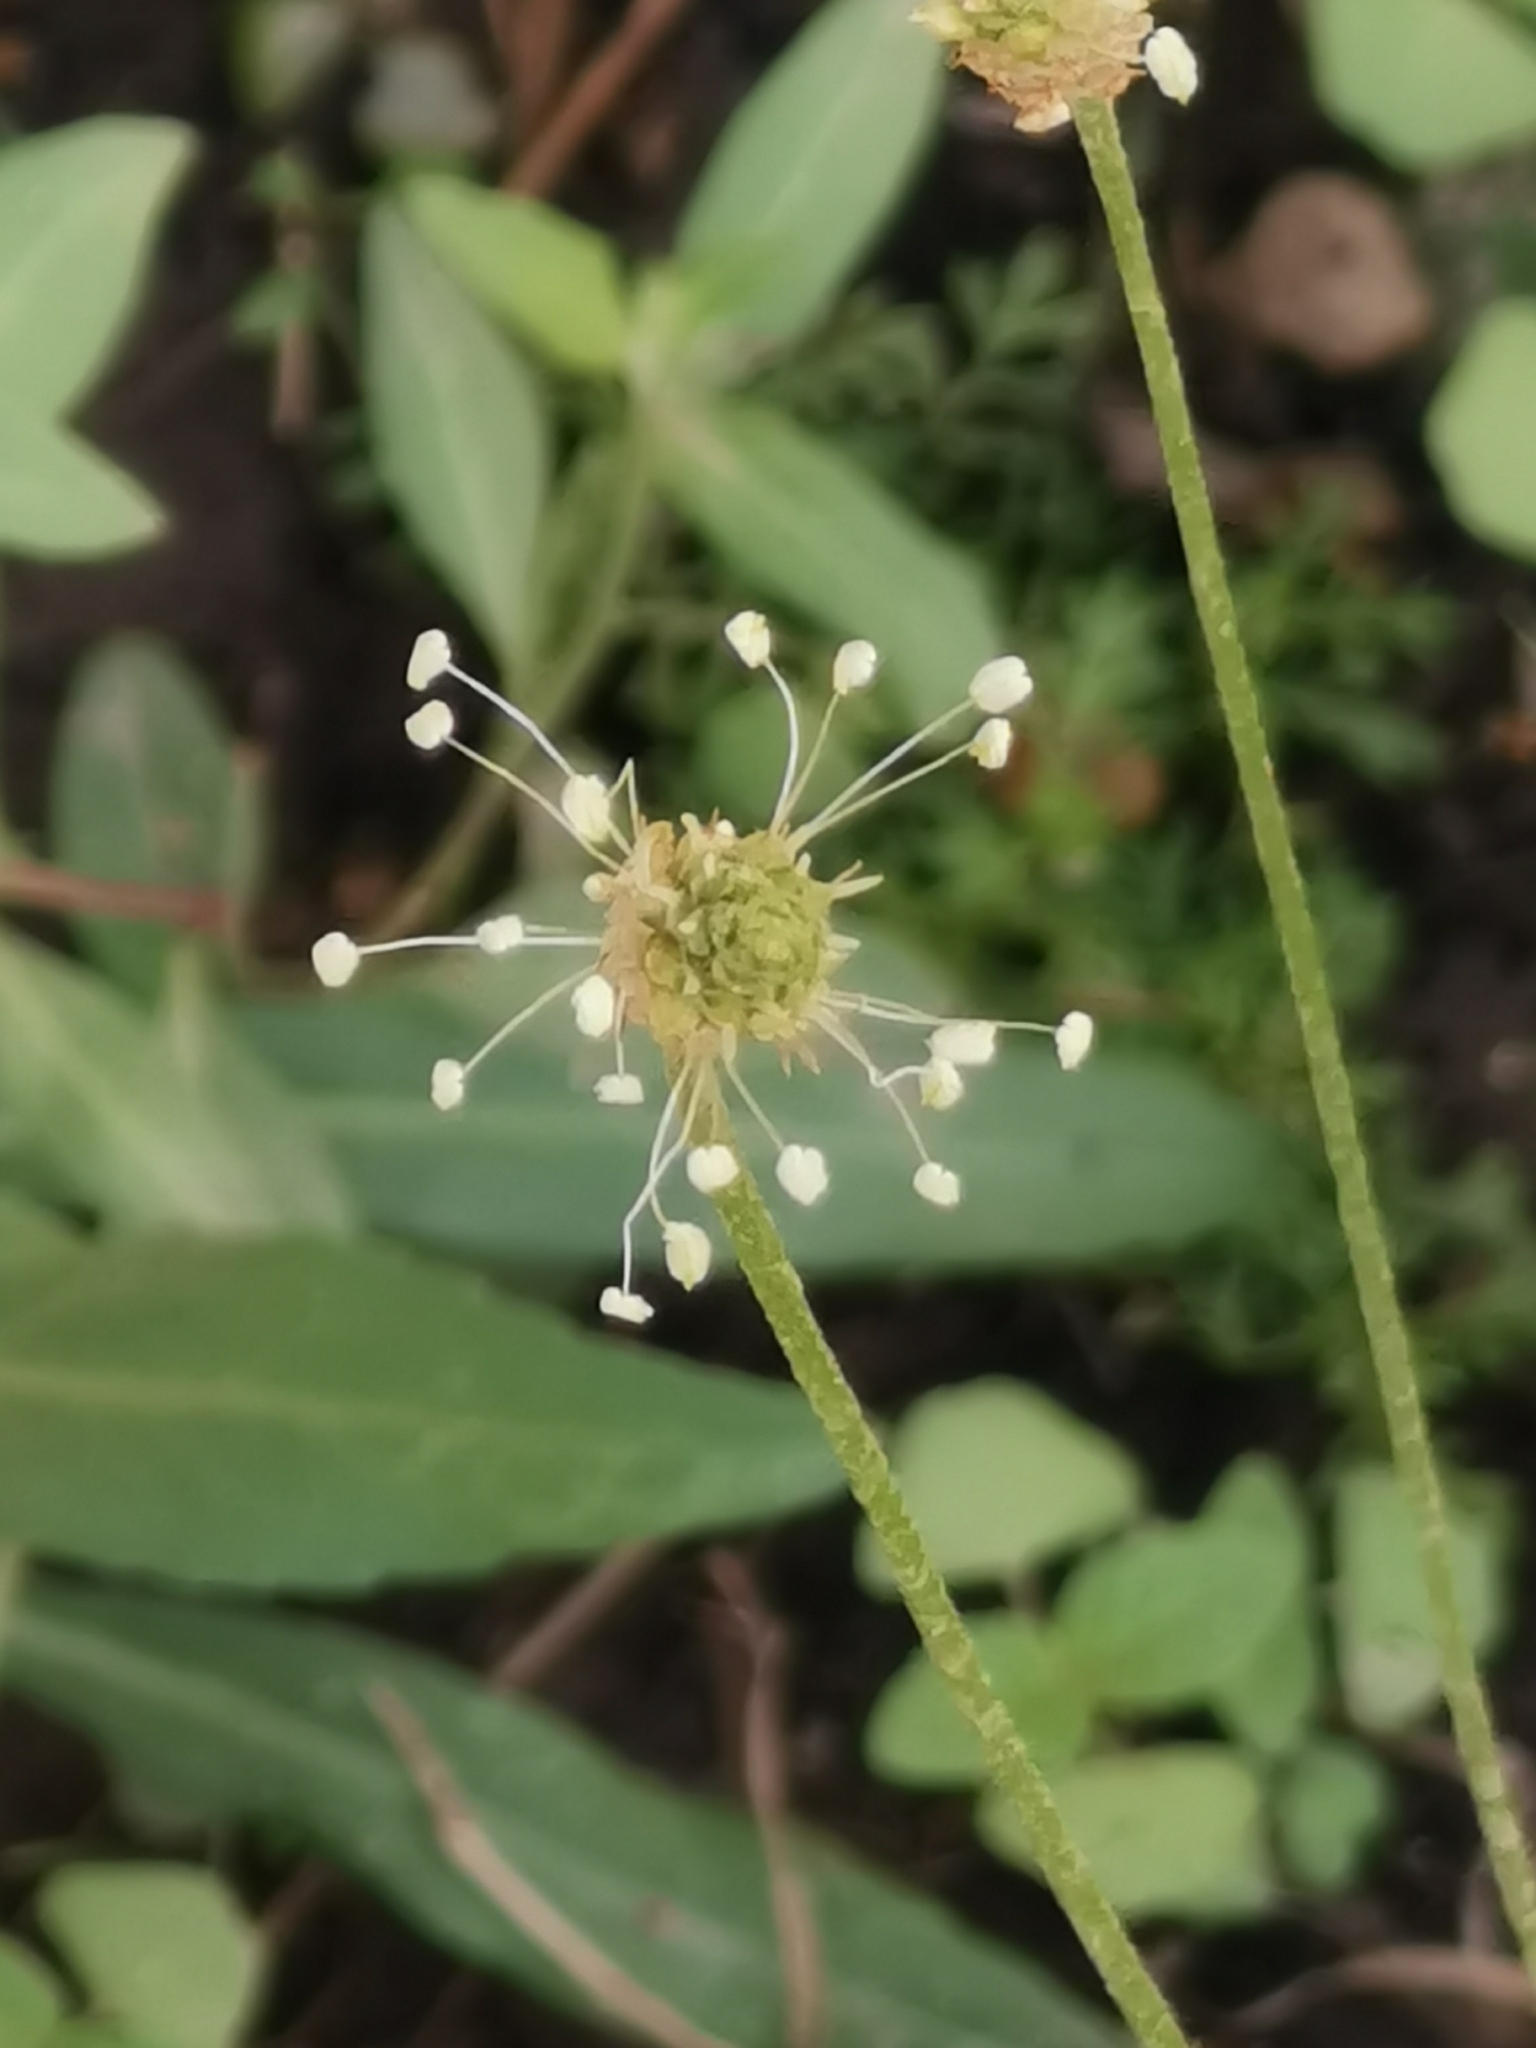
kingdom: Plantae
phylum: Tracheophyta
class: Magnoliopsida
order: Lamiales
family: Plantaginaceae
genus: Plantago
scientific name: Plantago lanceolata
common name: Ribwort plantain
